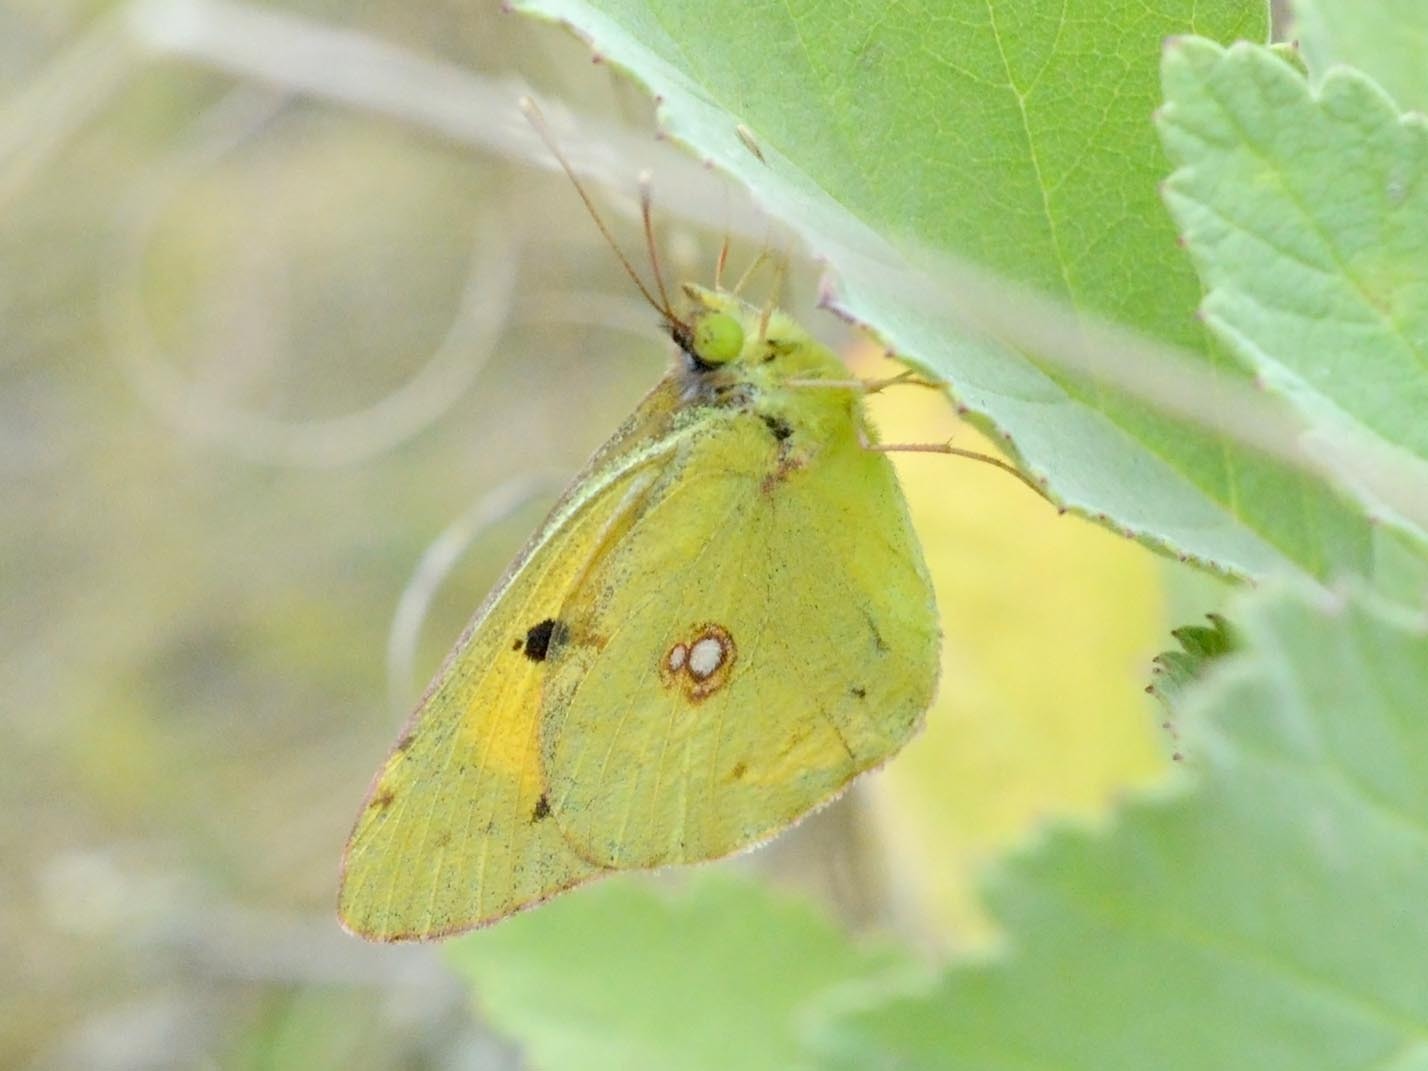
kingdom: Animalia
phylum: Arthropoda
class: Insecta
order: Lepidoptera
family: Pieridae
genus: Colias
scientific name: Colias croceus
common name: Clouded yellow
